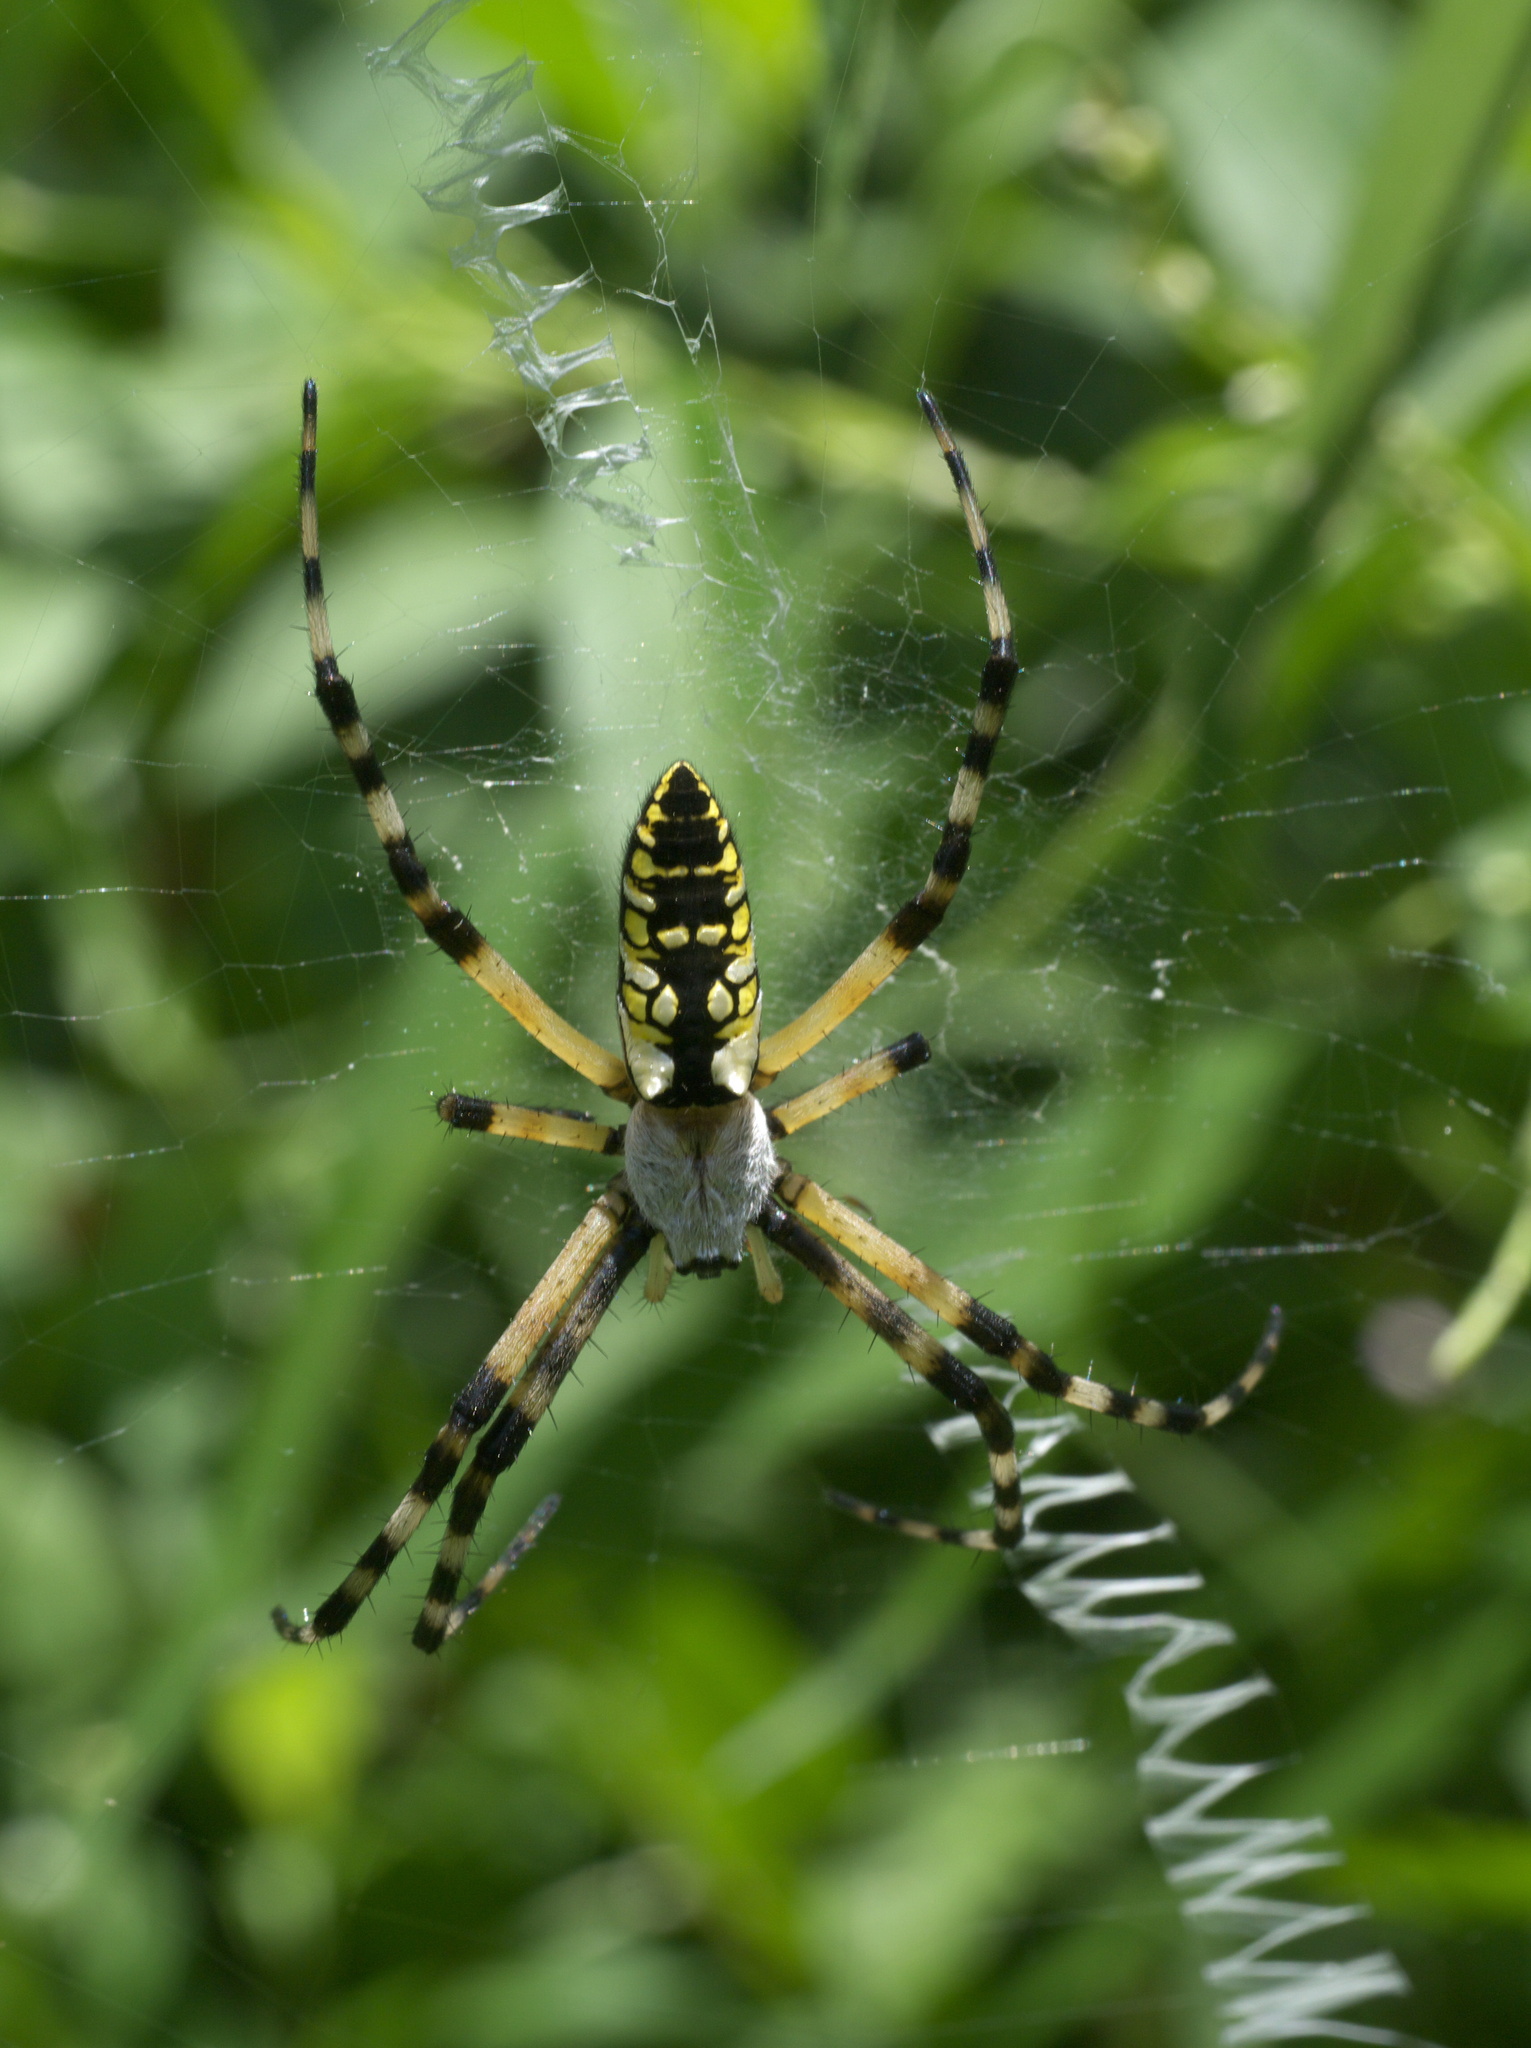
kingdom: Animalia
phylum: Arthropoda
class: Arachnida
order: Araneae
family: Araneidae
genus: Argiope
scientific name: Argiope aurantia
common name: Orb weavers
